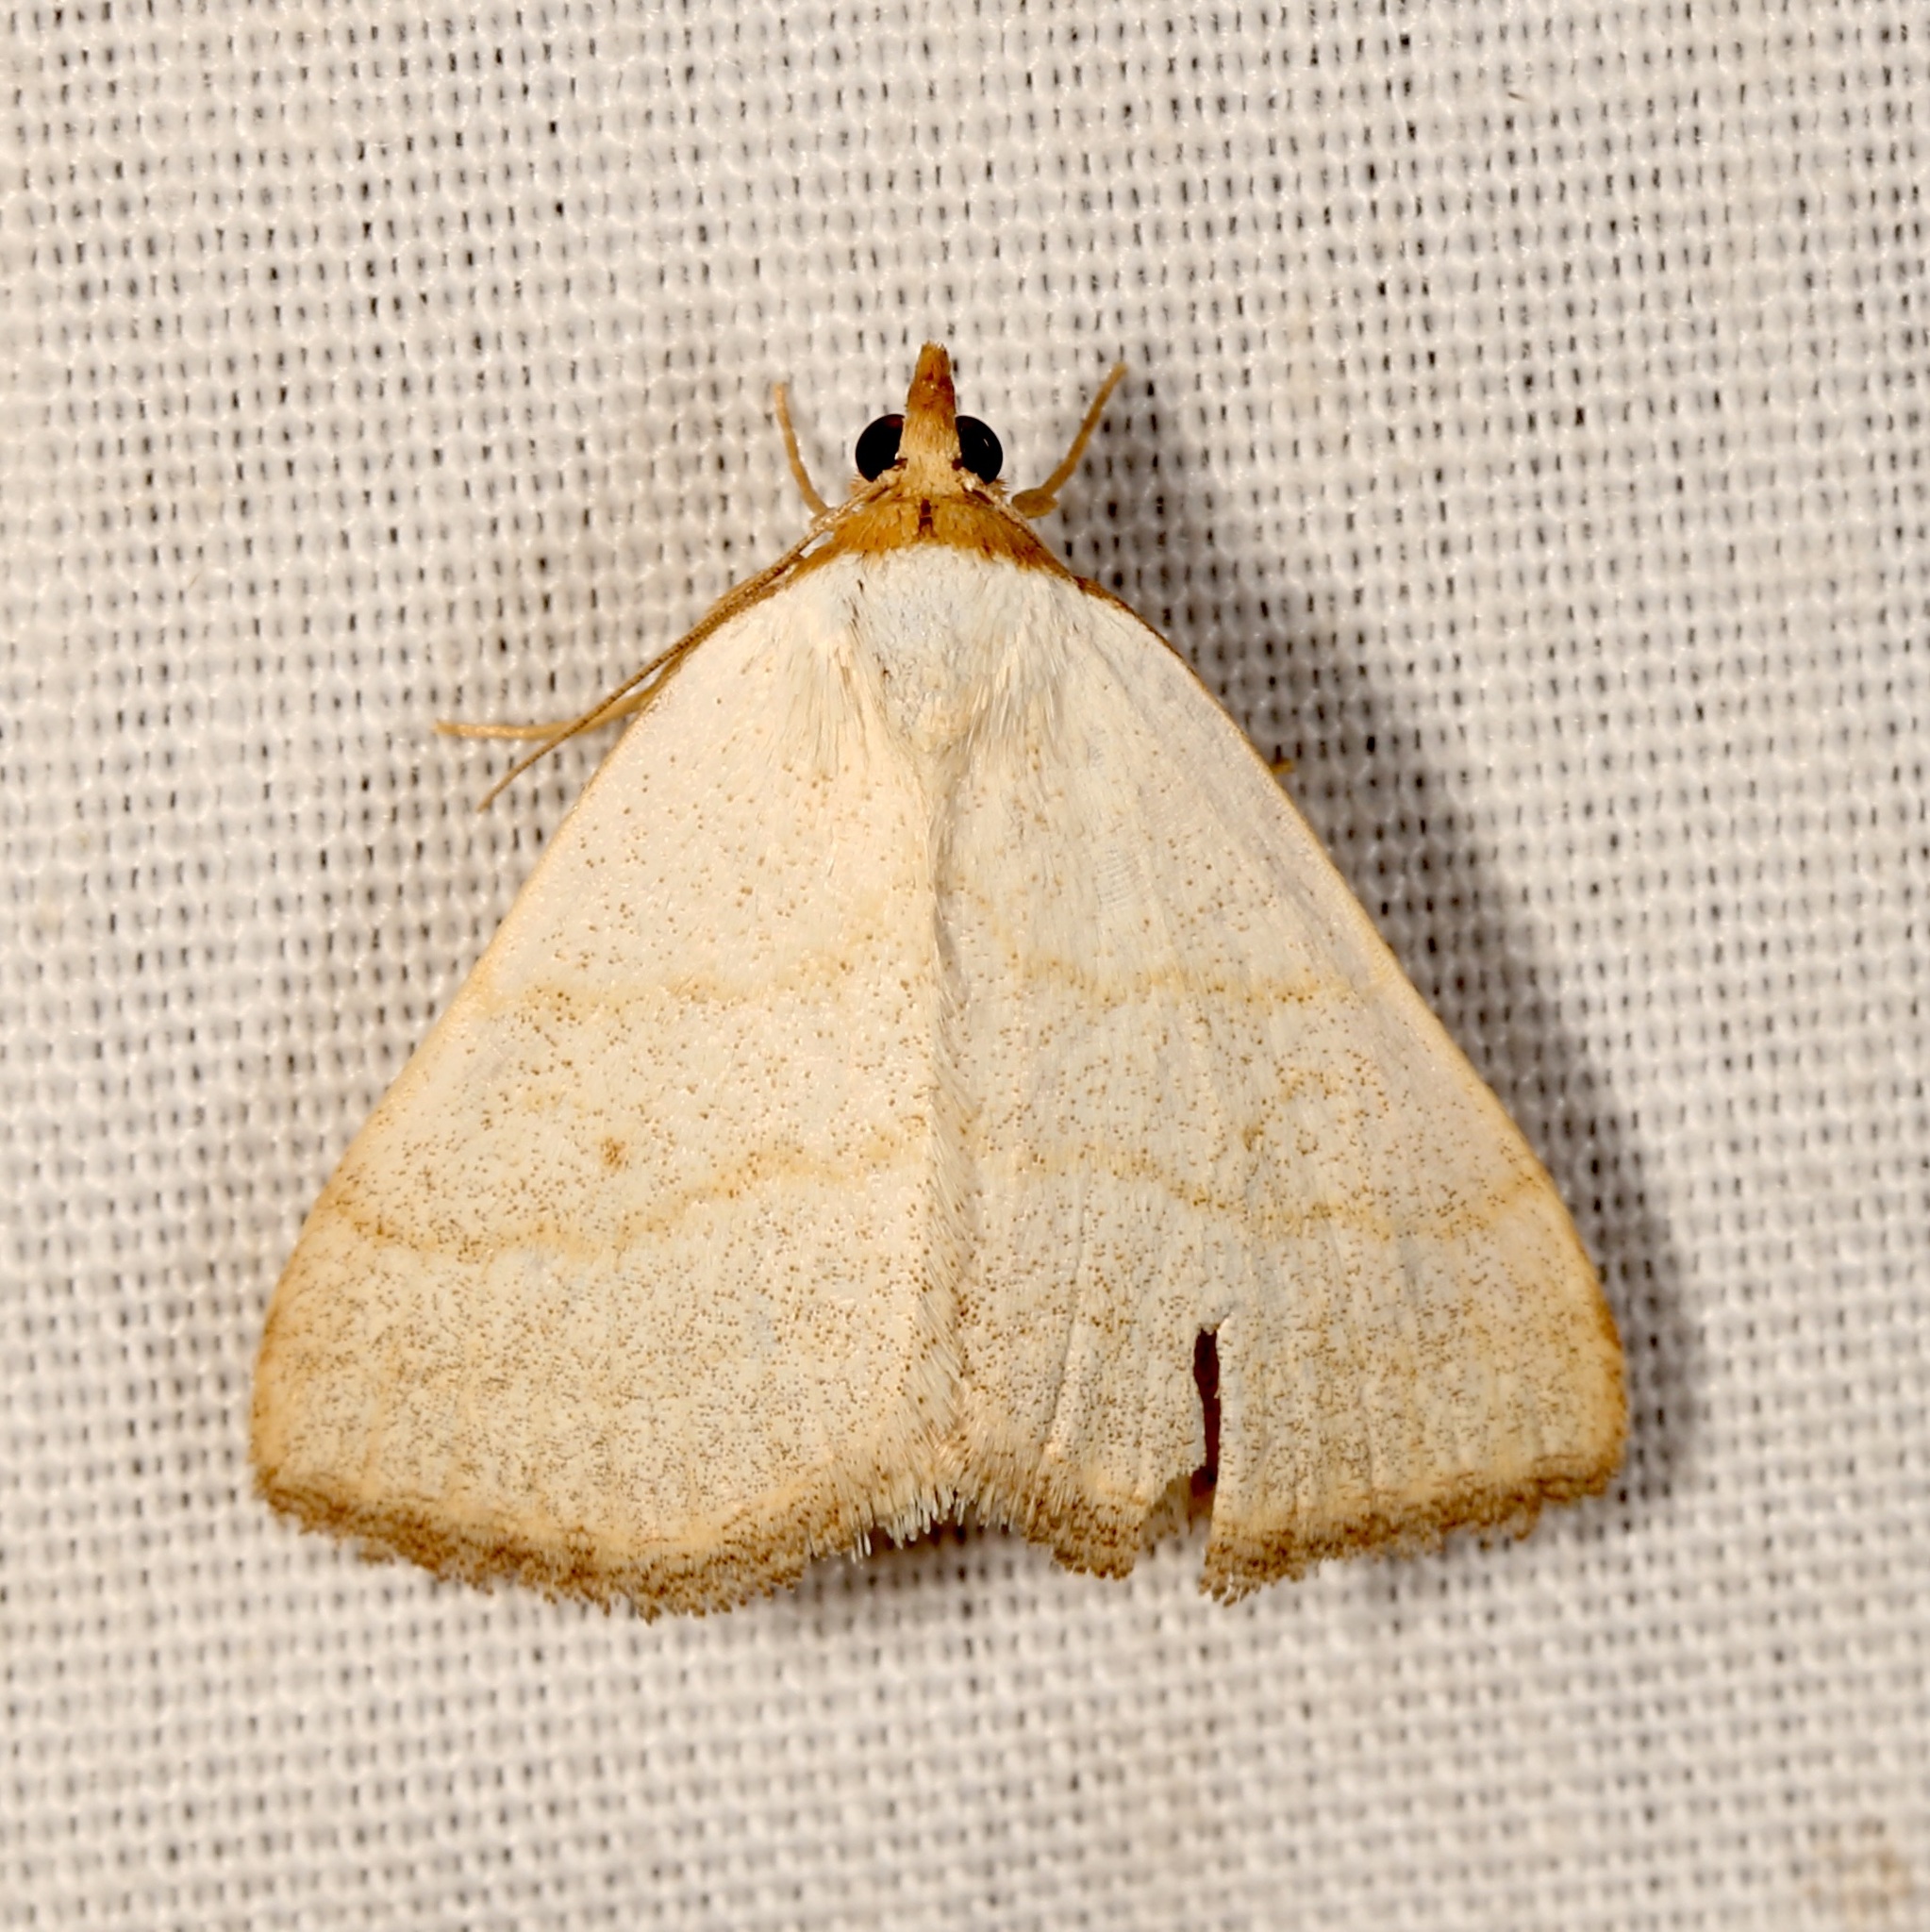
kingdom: Animalia
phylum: Arthropoda
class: Insecta
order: Lepidoptera
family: Erebidae
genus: Oxycilla
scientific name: Oxycilla tripla
